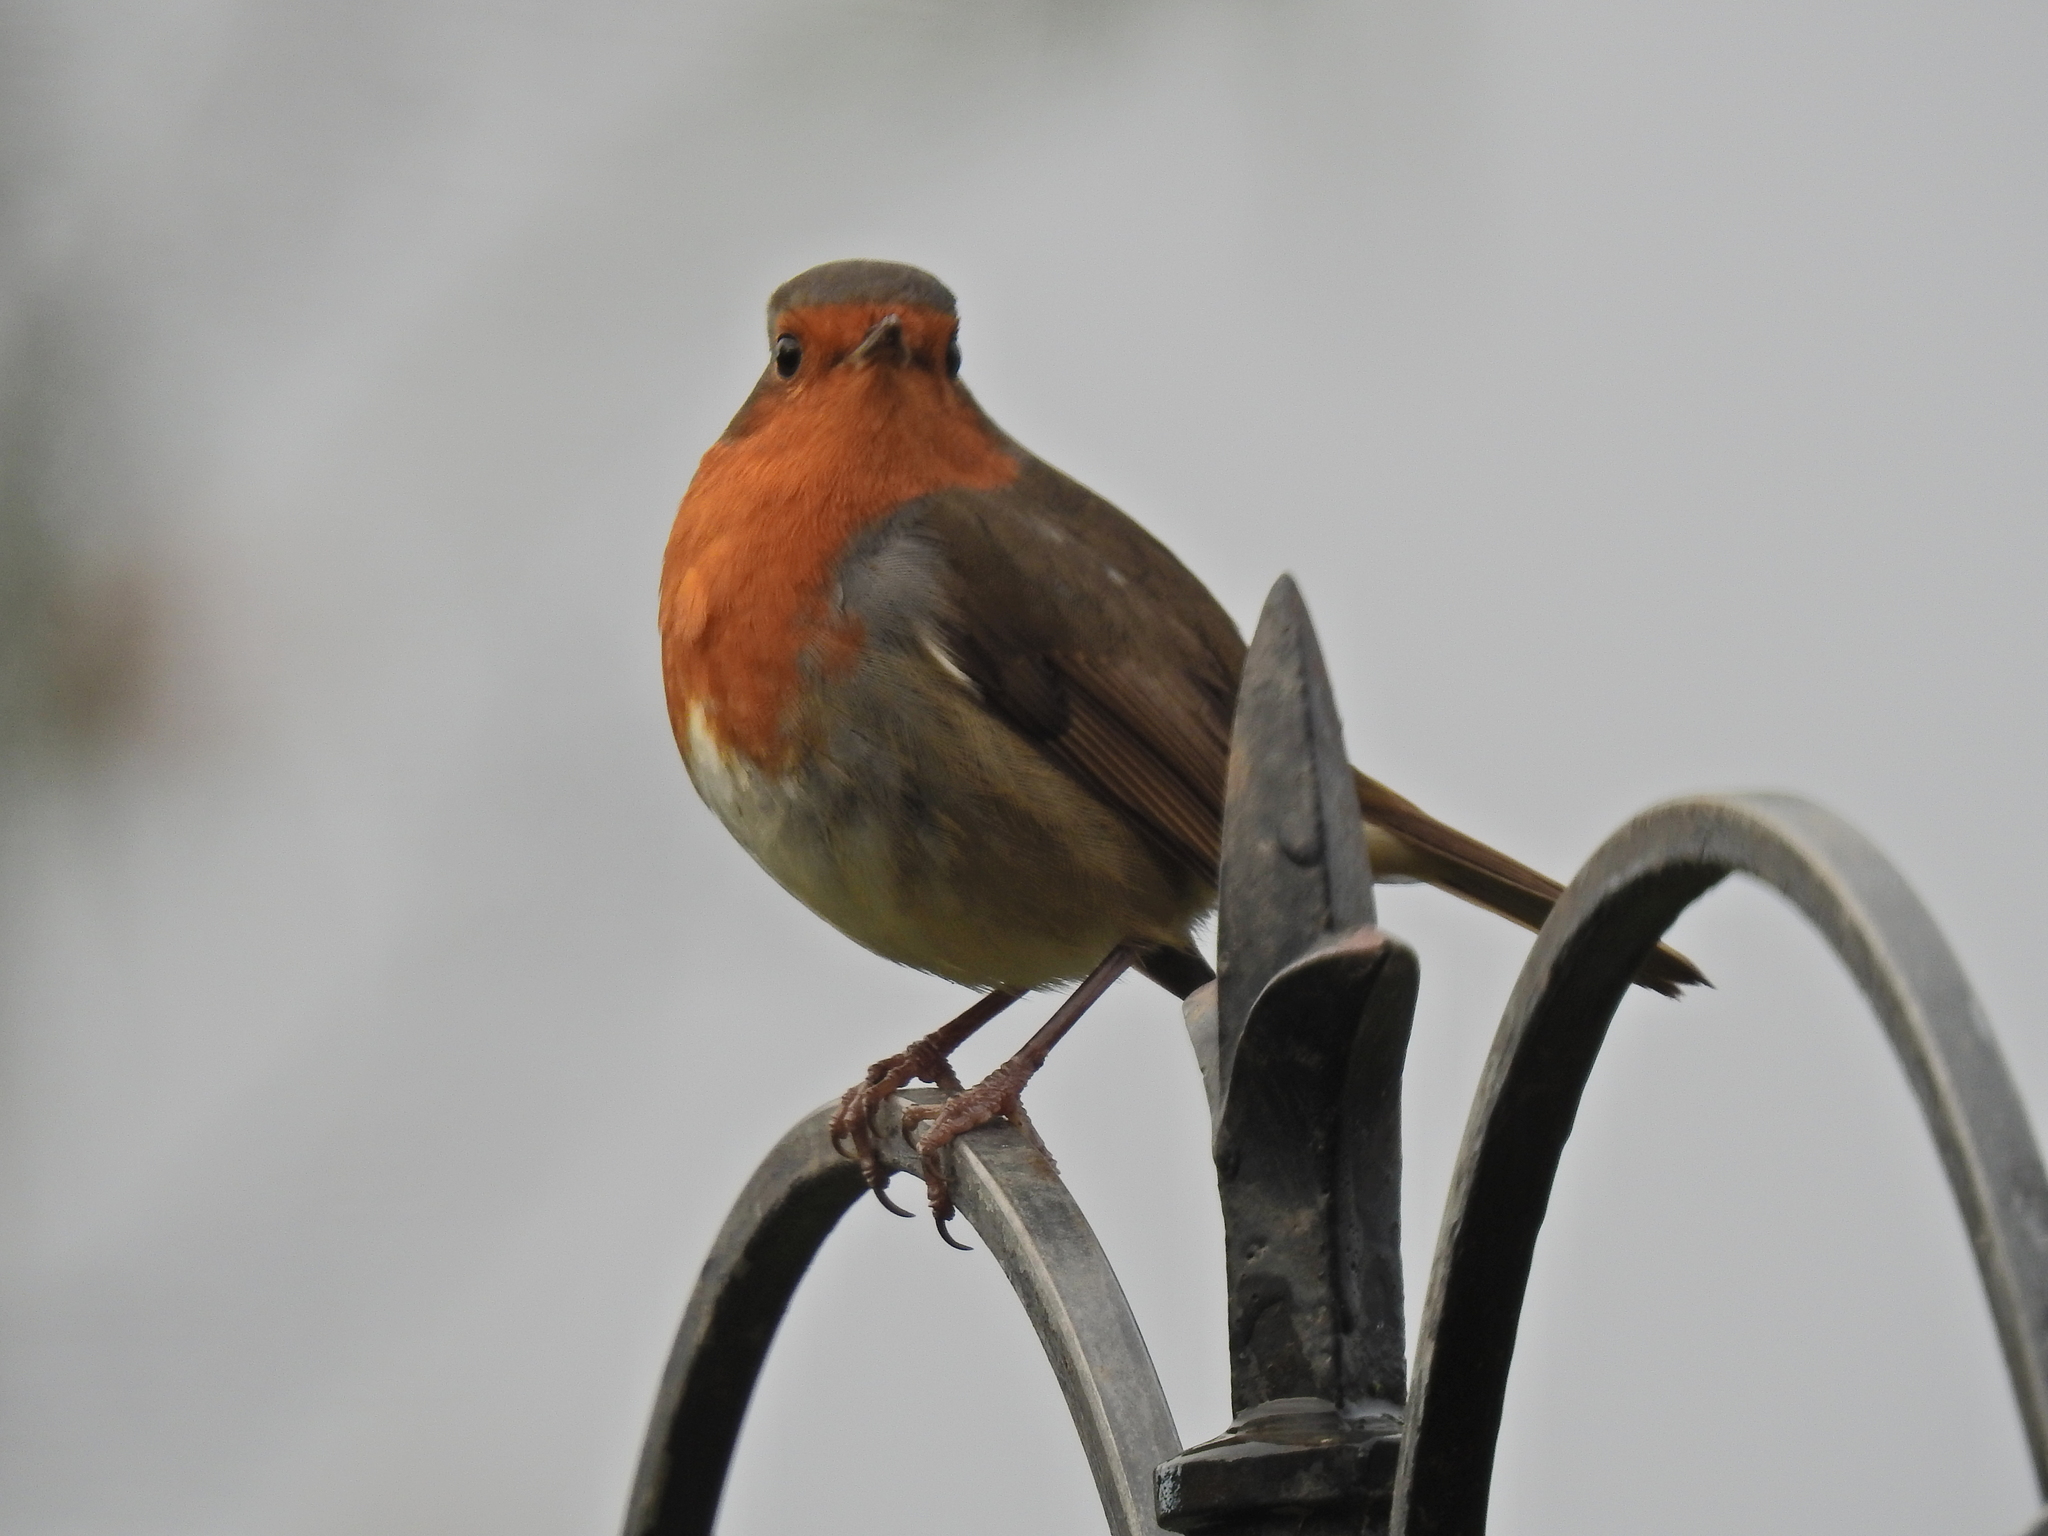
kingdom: Animalia
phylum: Chordata
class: Aves
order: Passeriformes
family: Muscicapidae
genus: Erithacus
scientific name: Erithacus rubecula
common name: European robin
